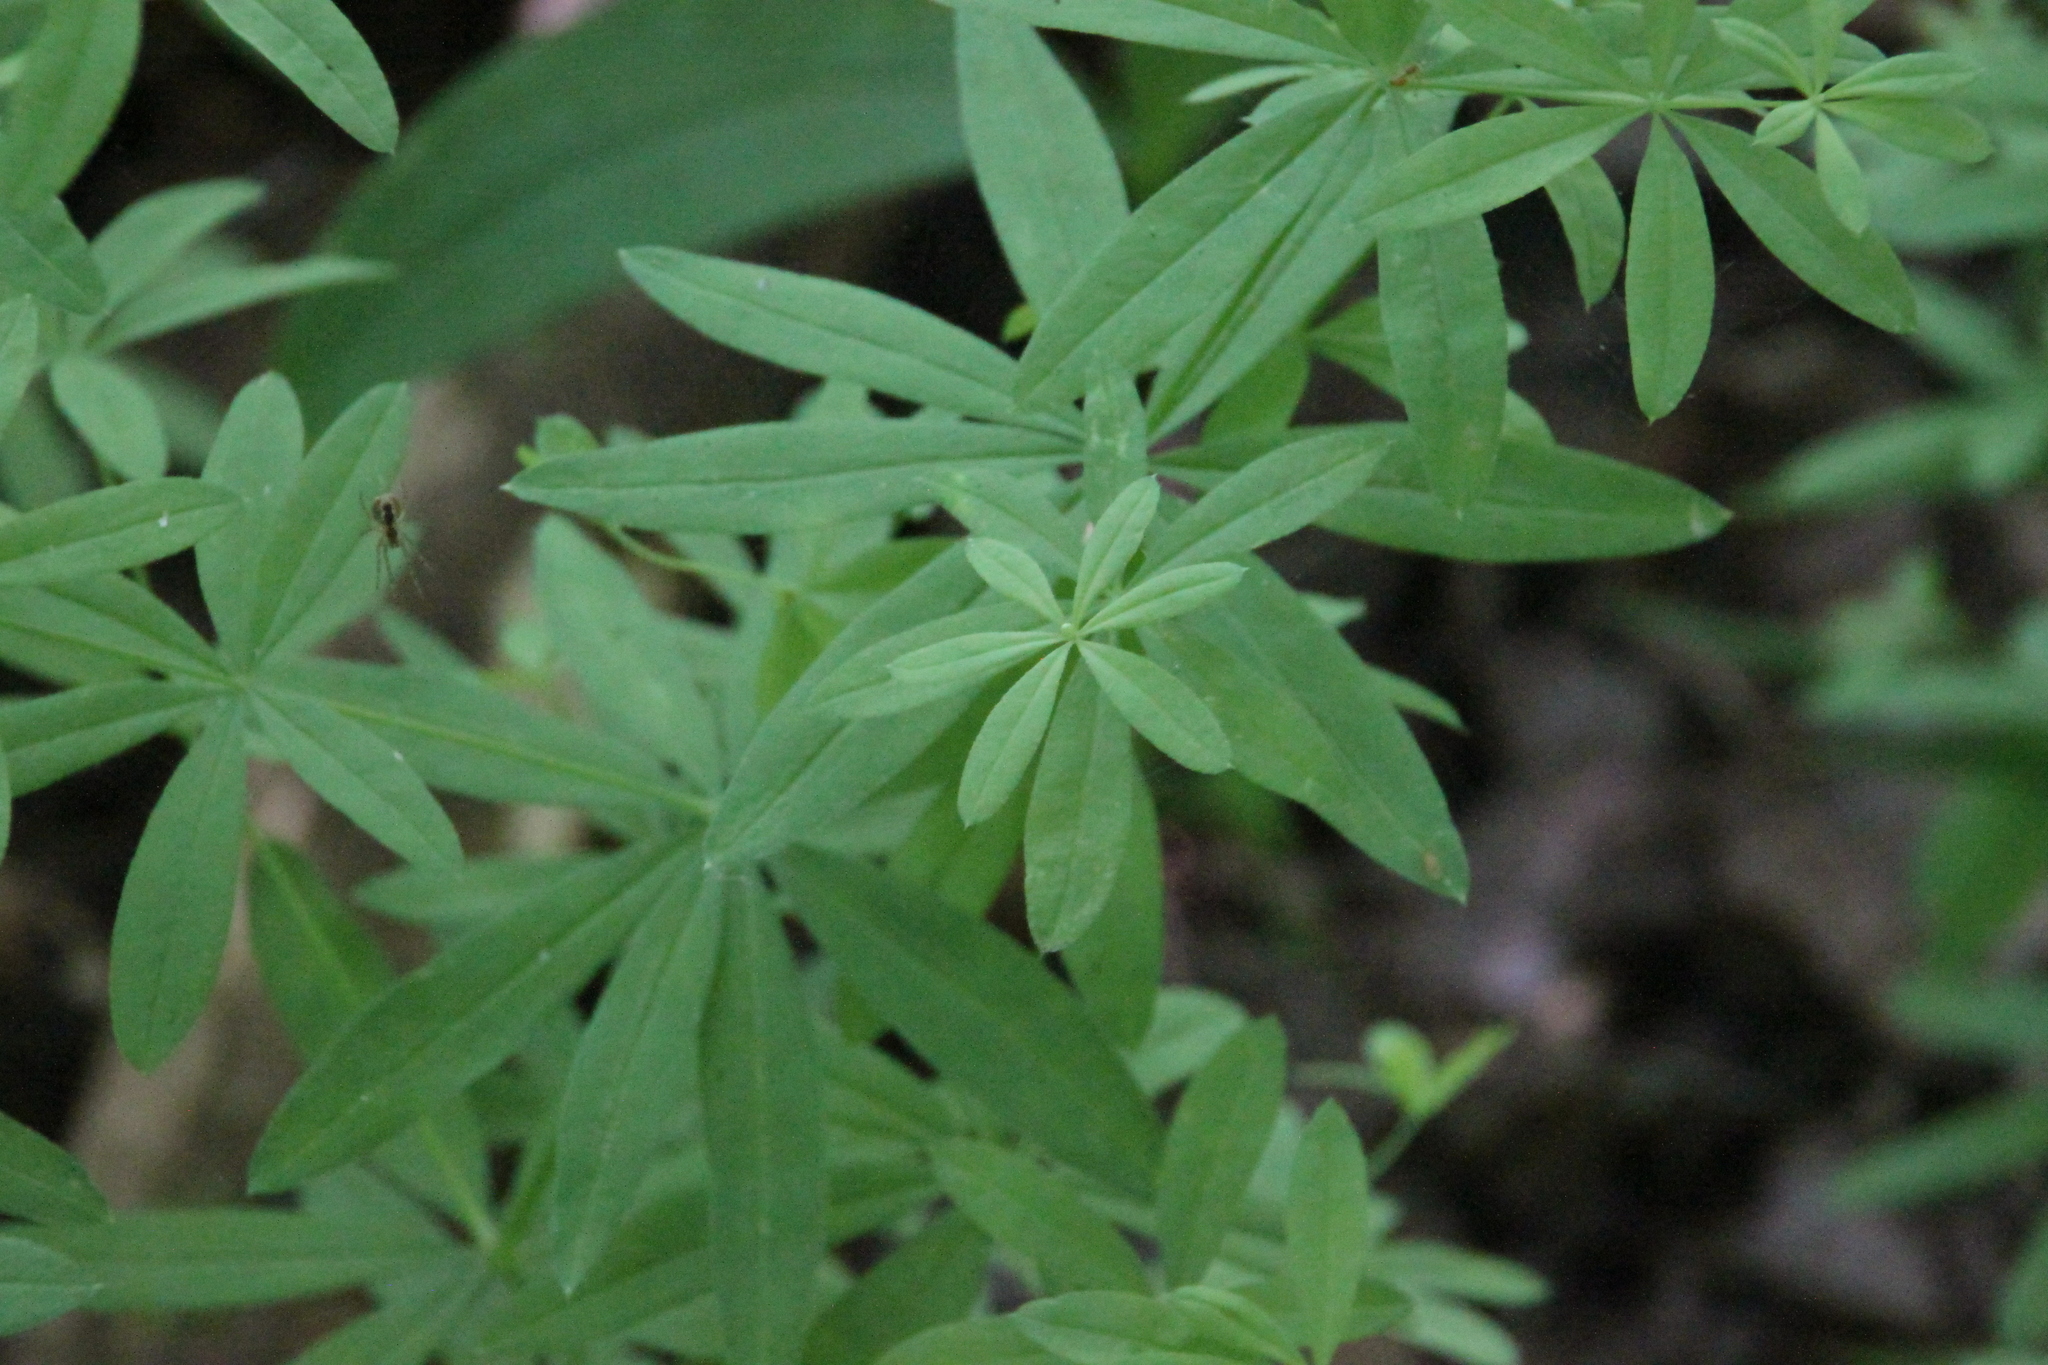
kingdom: Plantae
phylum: Tracheophyta
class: Magnoliopsida
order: Gentianales
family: Rubiaceae
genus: Galium
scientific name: Galium intermedium
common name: Bedstraw
